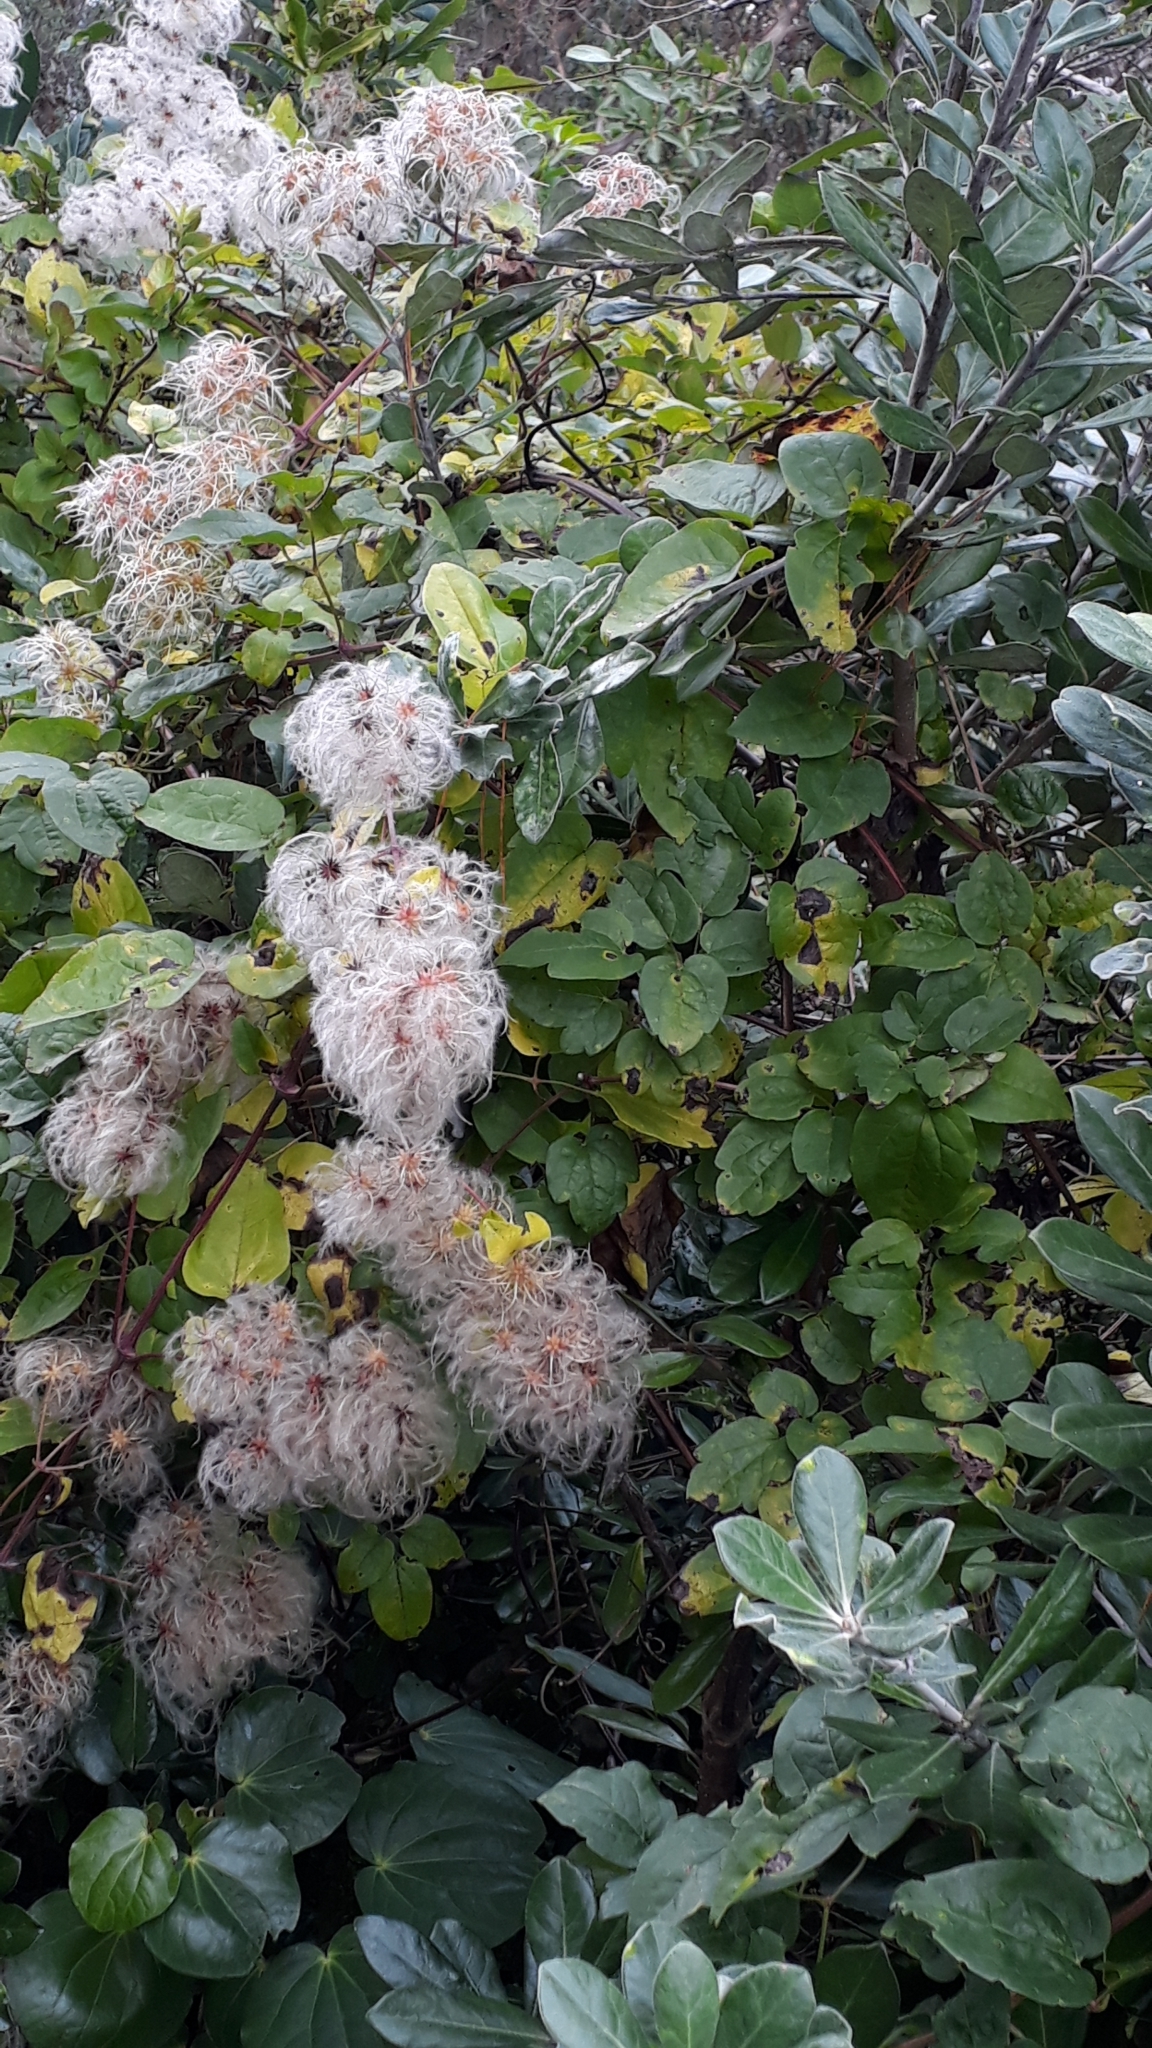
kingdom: Plantae
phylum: Tracheophyta
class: Magnoliopsida
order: Ranunculales
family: Ranunculaceae
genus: Clematis
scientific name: Clematis vitalba
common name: Evergreen clematis
